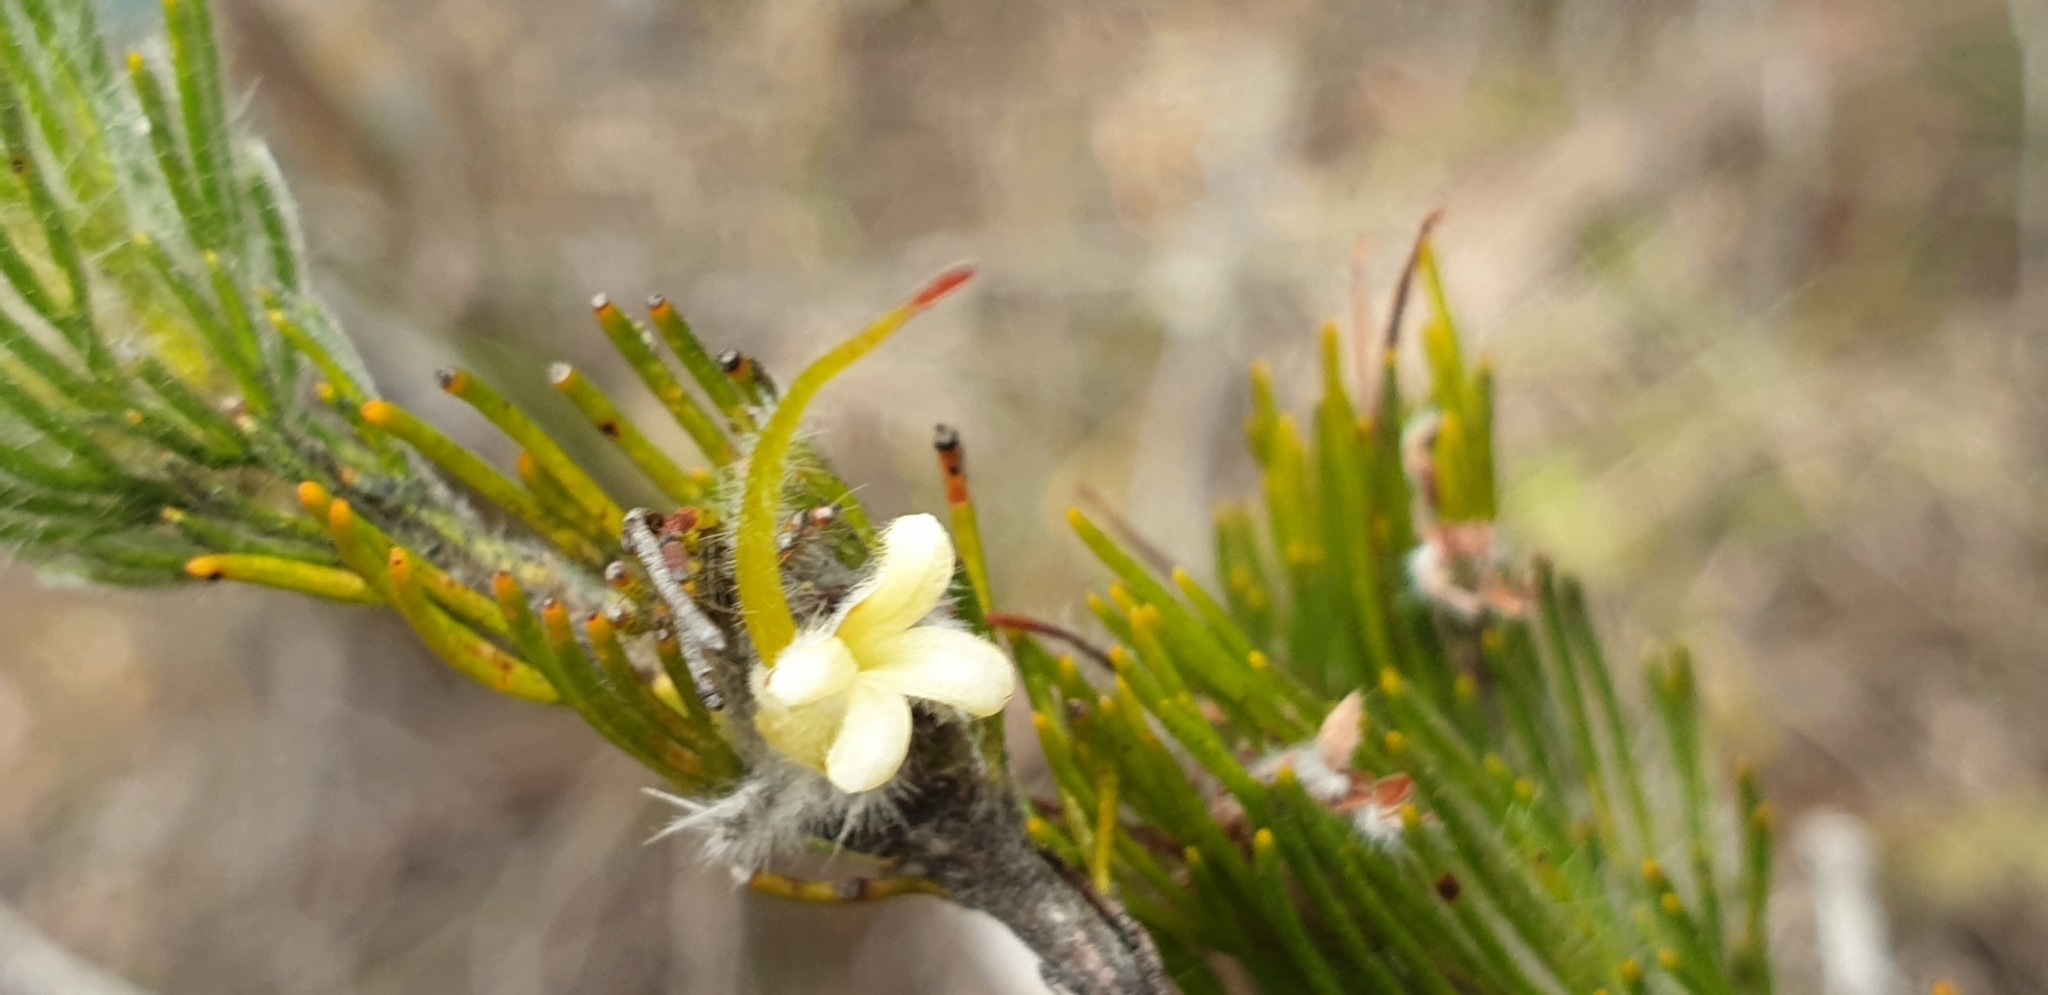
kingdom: Plantae
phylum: Tracheophyta
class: Magnoliopsida
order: Proteales
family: Proteaceae
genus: Adenanthos
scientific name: Adenanthos terminalis
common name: Yellow gland-flower
